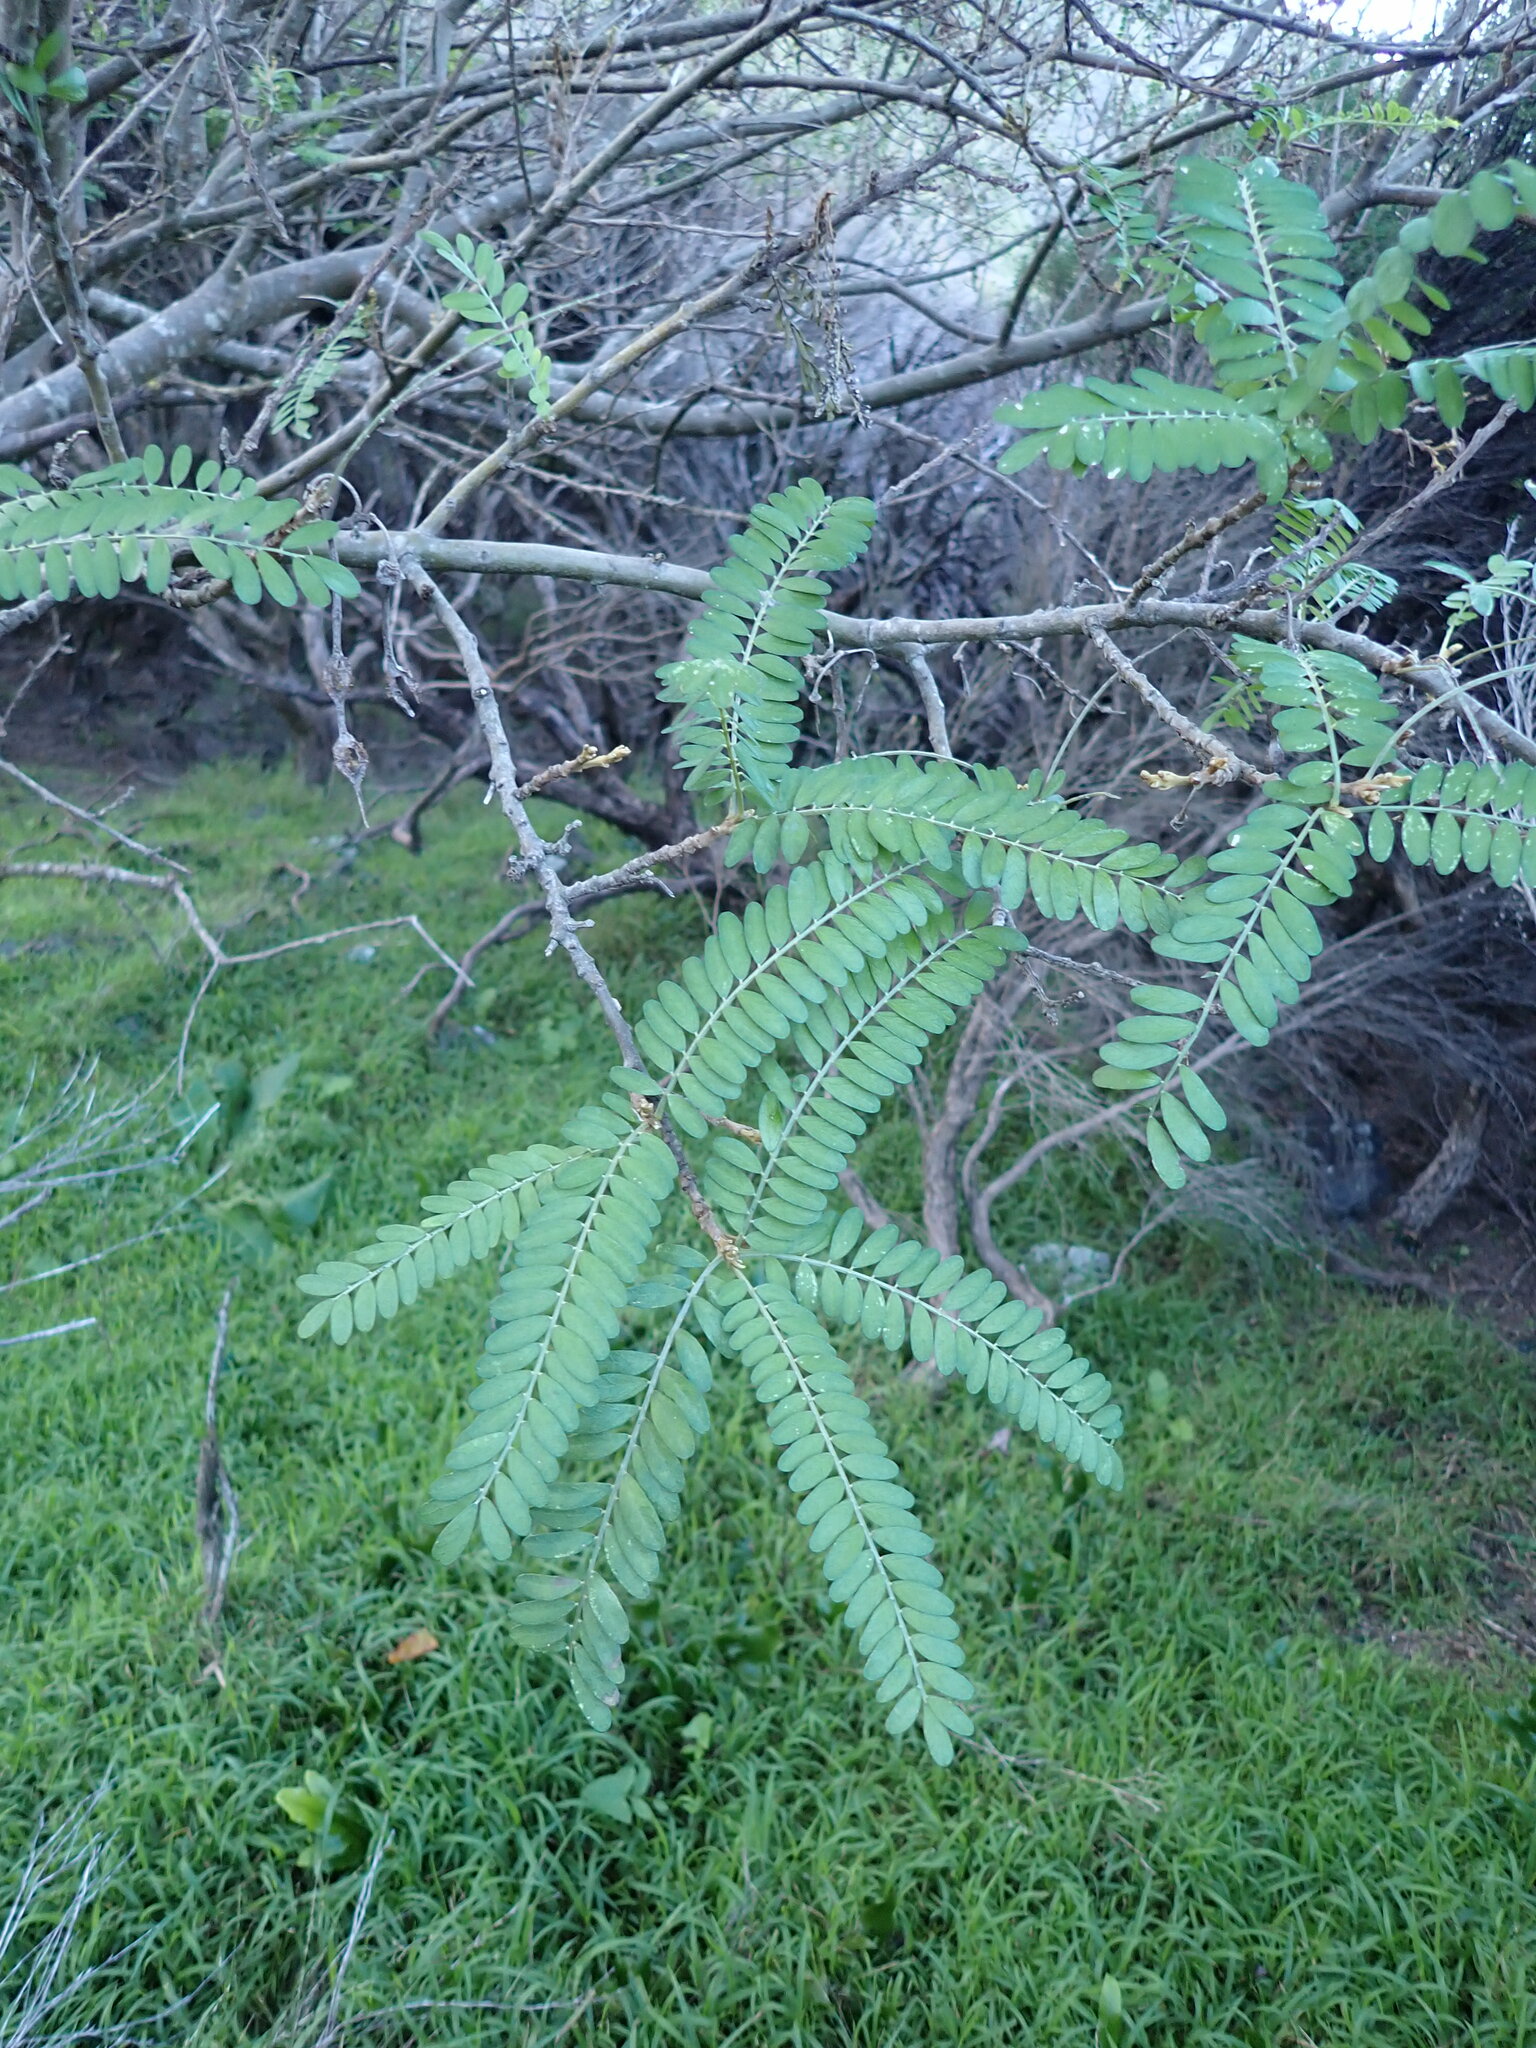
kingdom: Plantae
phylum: Tracheophyta
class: Magnoliopsida
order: Fabales
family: Fabaceae
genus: Sophora
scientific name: Sophora molloyi
